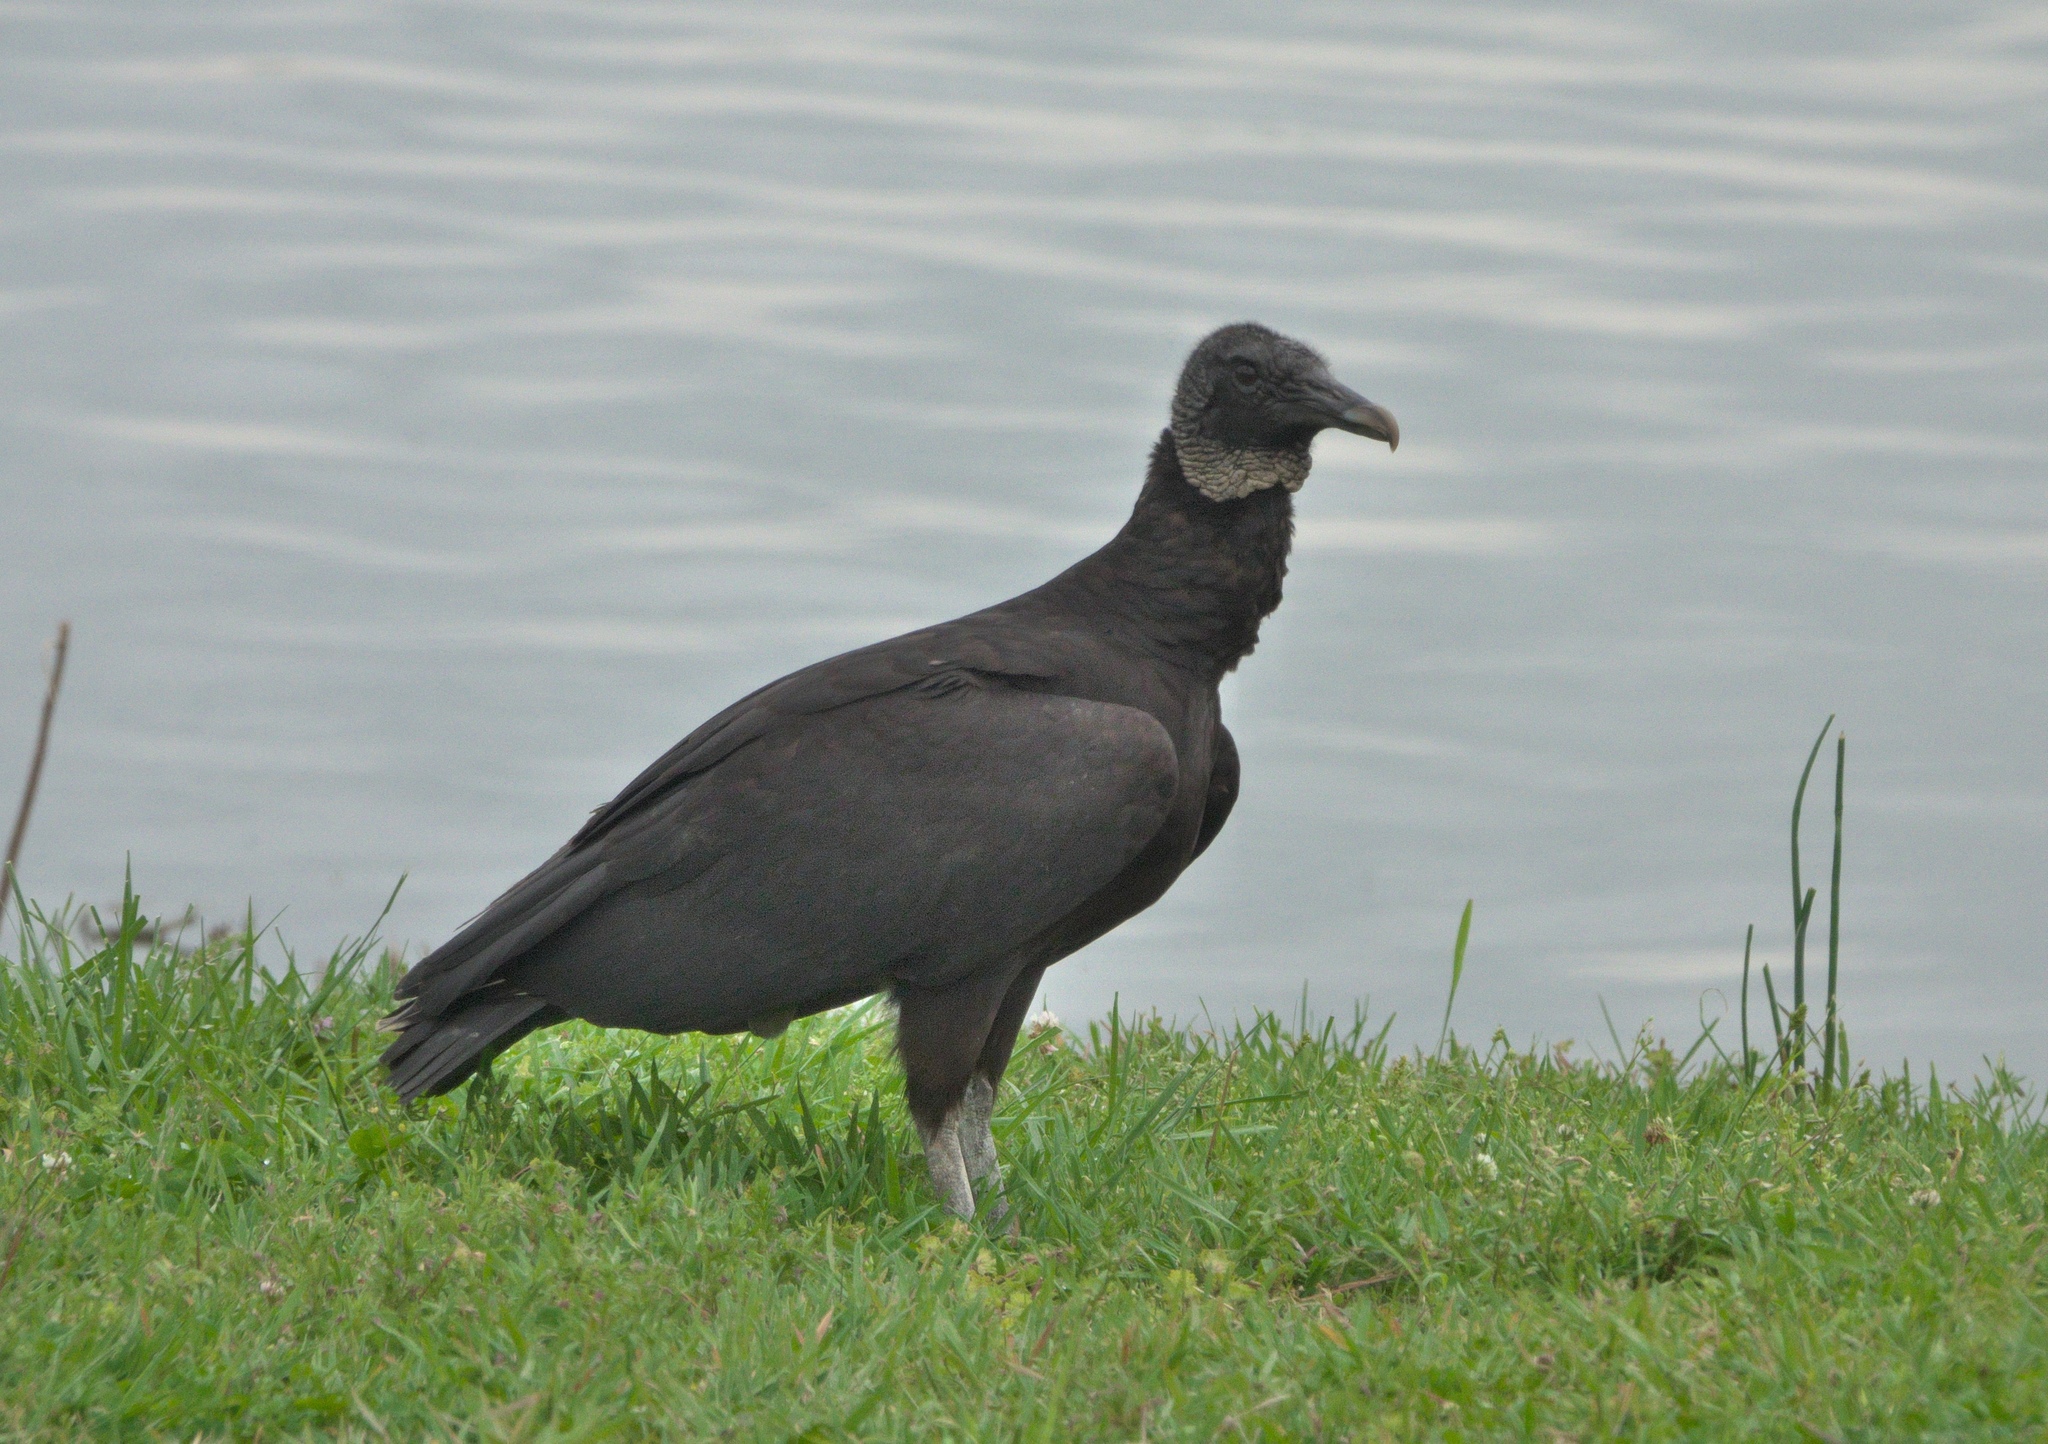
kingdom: Animalia
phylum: Chordata
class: Aves
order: Accipitriformes
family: Cathartidae
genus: Coragyps
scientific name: Coragyps atratus
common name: Black vulture
